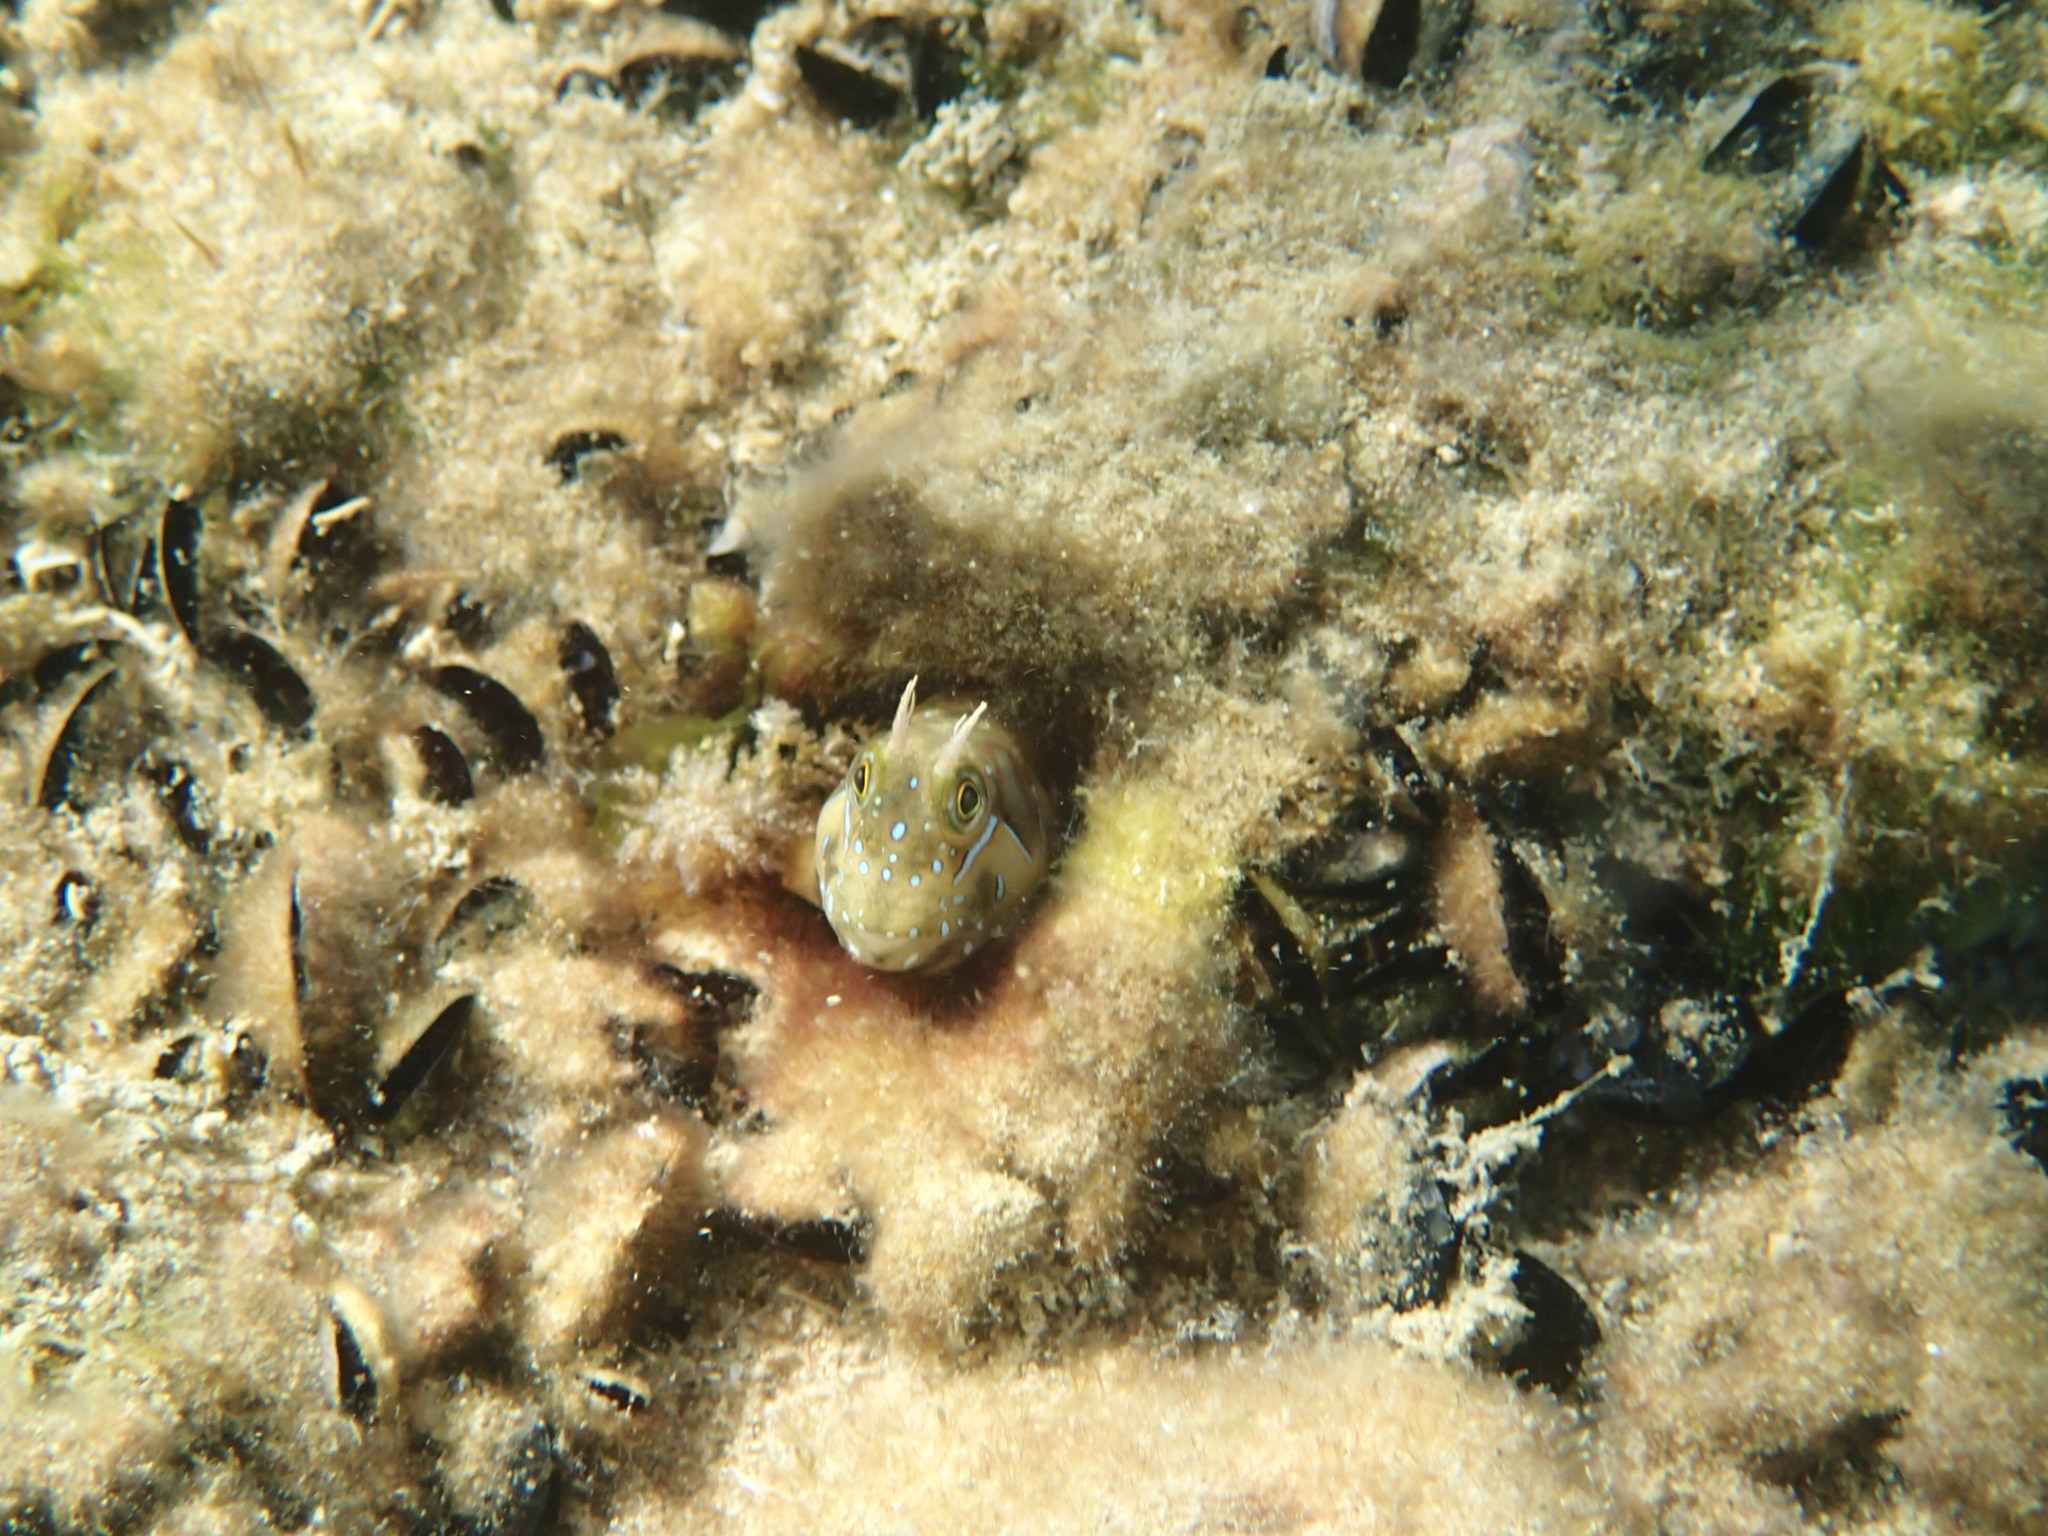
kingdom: Animalia
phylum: Chordata
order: Perciformes
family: Blenniidae
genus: Aidablennius
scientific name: Aidablennius sphynx
